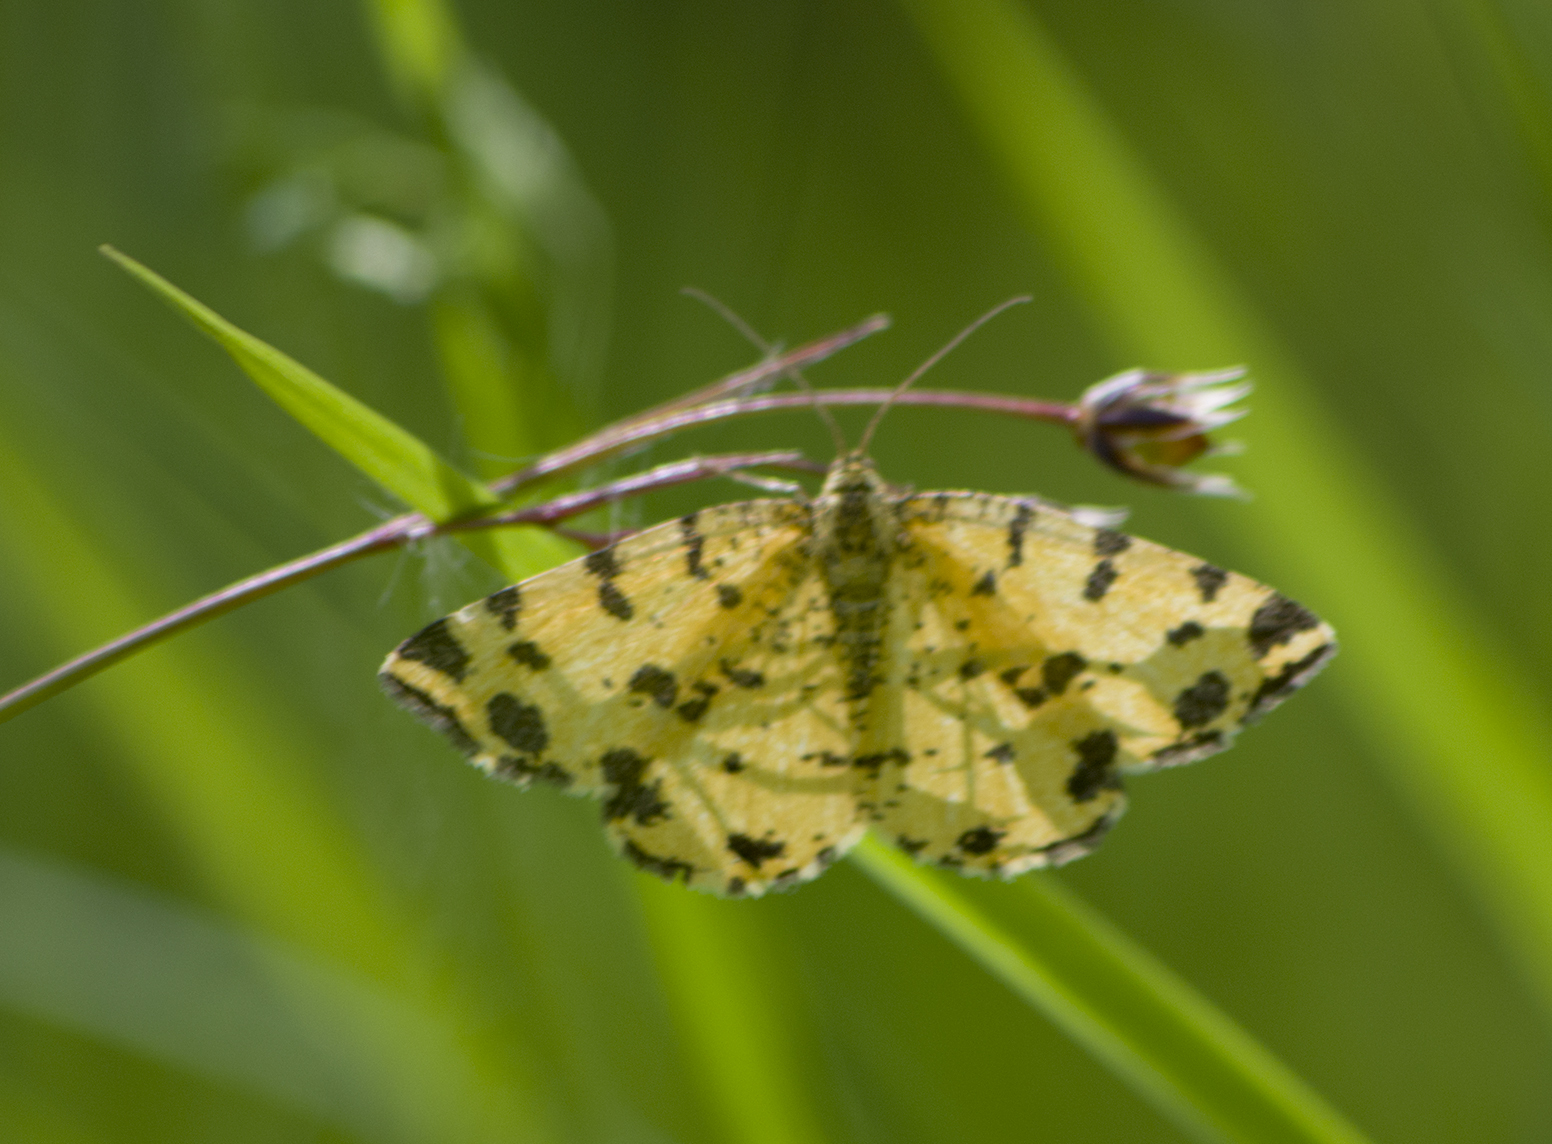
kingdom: Animalia
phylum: Arthropoda
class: Insecta
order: Lepidoptera
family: Geometridae
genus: Pseudopanthera
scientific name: Pseudopanthera macularia
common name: Speckled yellow
